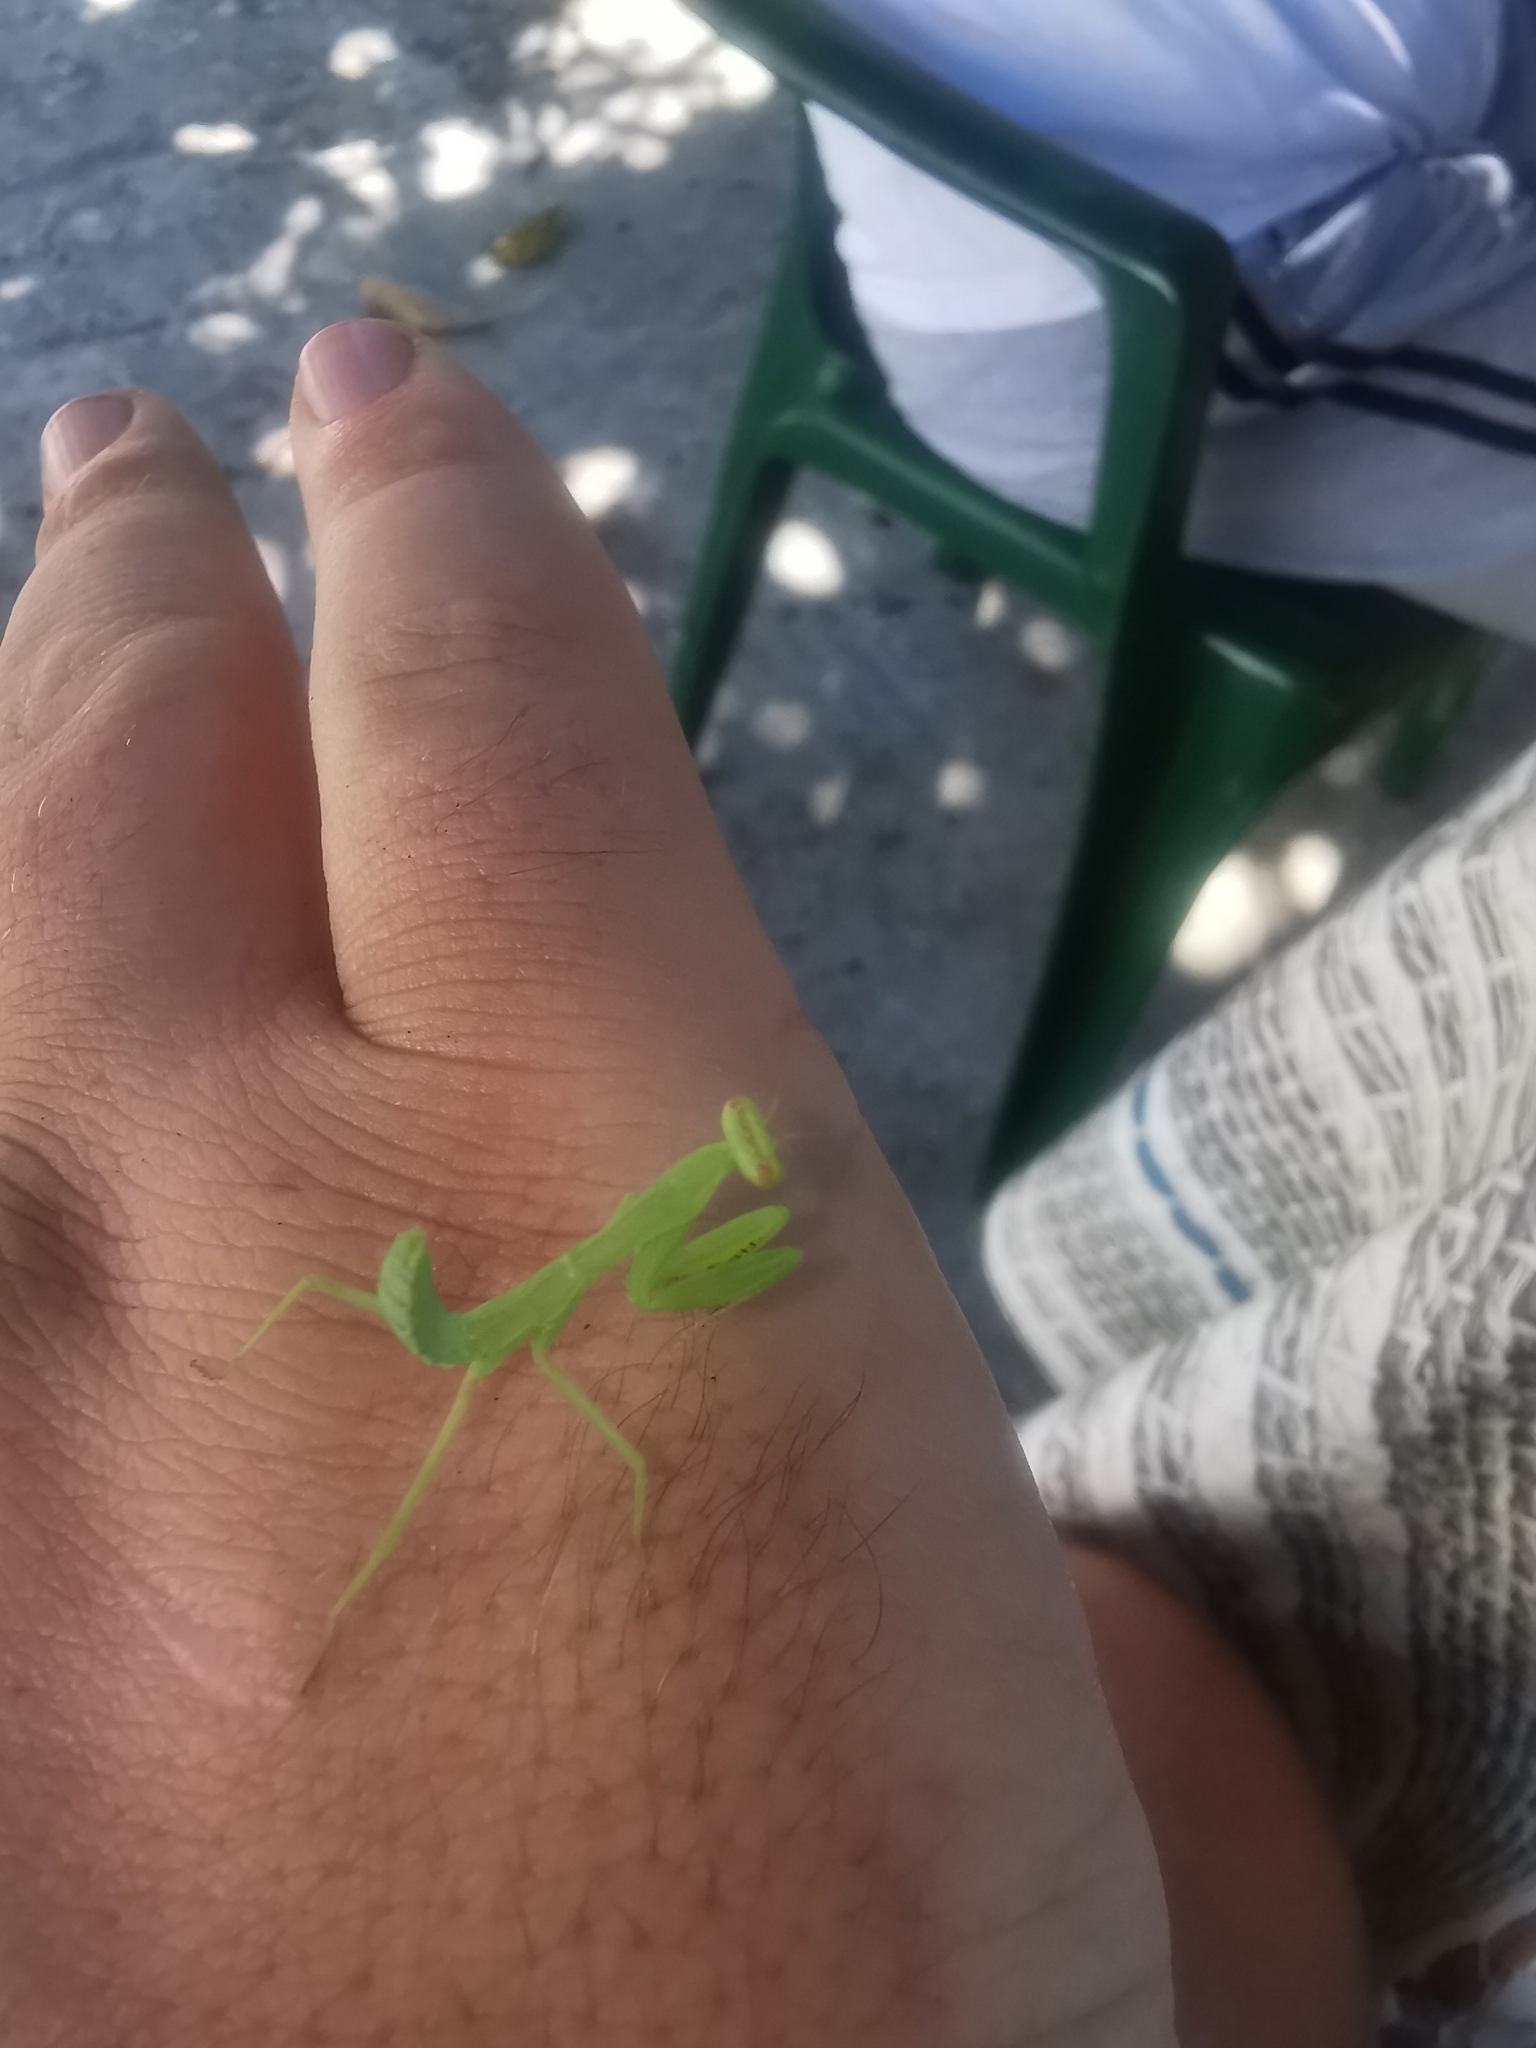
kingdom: Animalia
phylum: Arthropoda
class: Insecta
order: Mantodea
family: Mantidae
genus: Hierodula
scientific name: Hierodula transcaucasica
